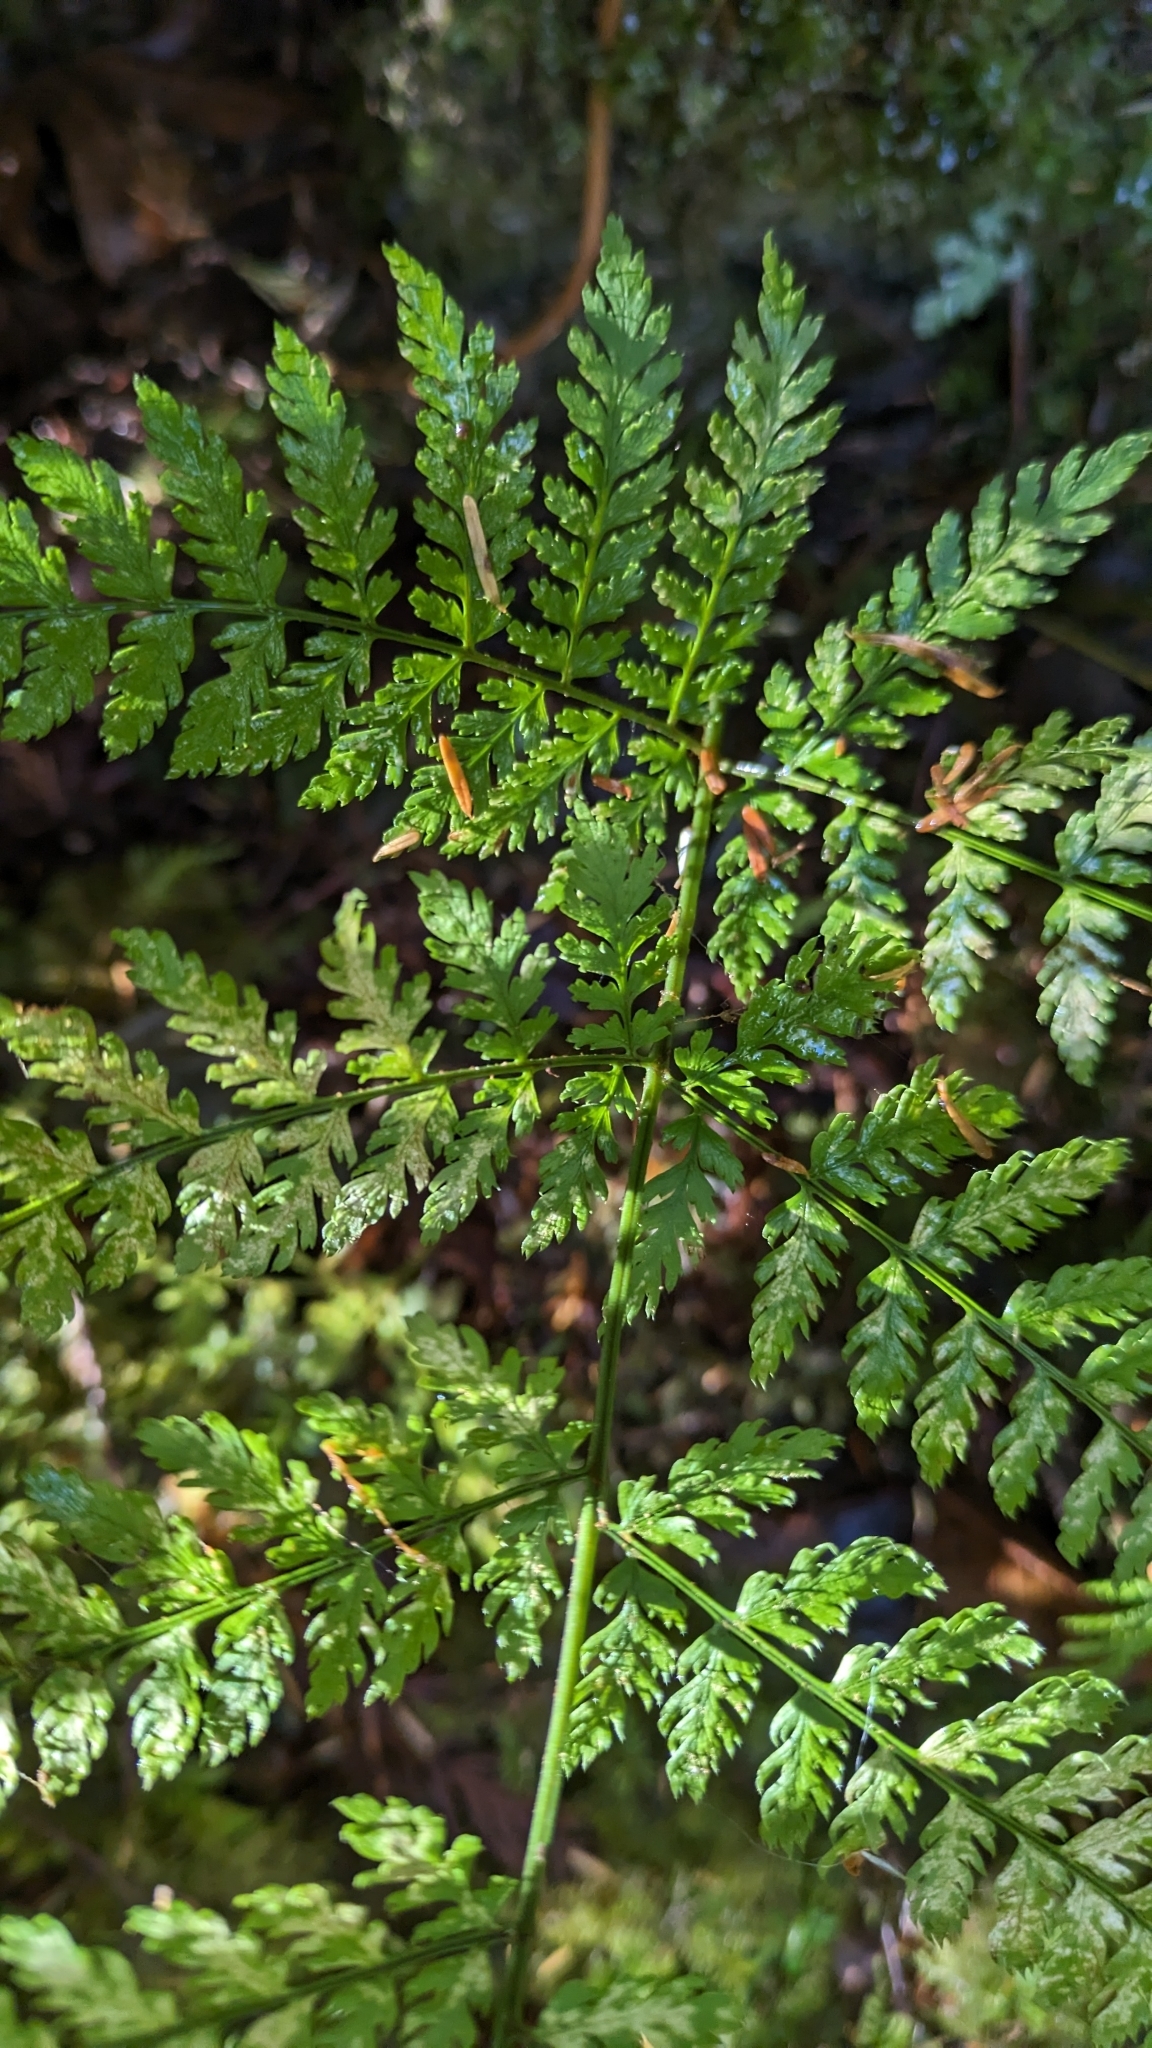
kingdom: Plantae
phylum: Tracheophyta
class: Polypodiopsida
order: Polypodiales
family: Dryopteridaceae
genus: Dryopteris
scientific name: Dryopteris expansa
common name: Northern buckler fern
